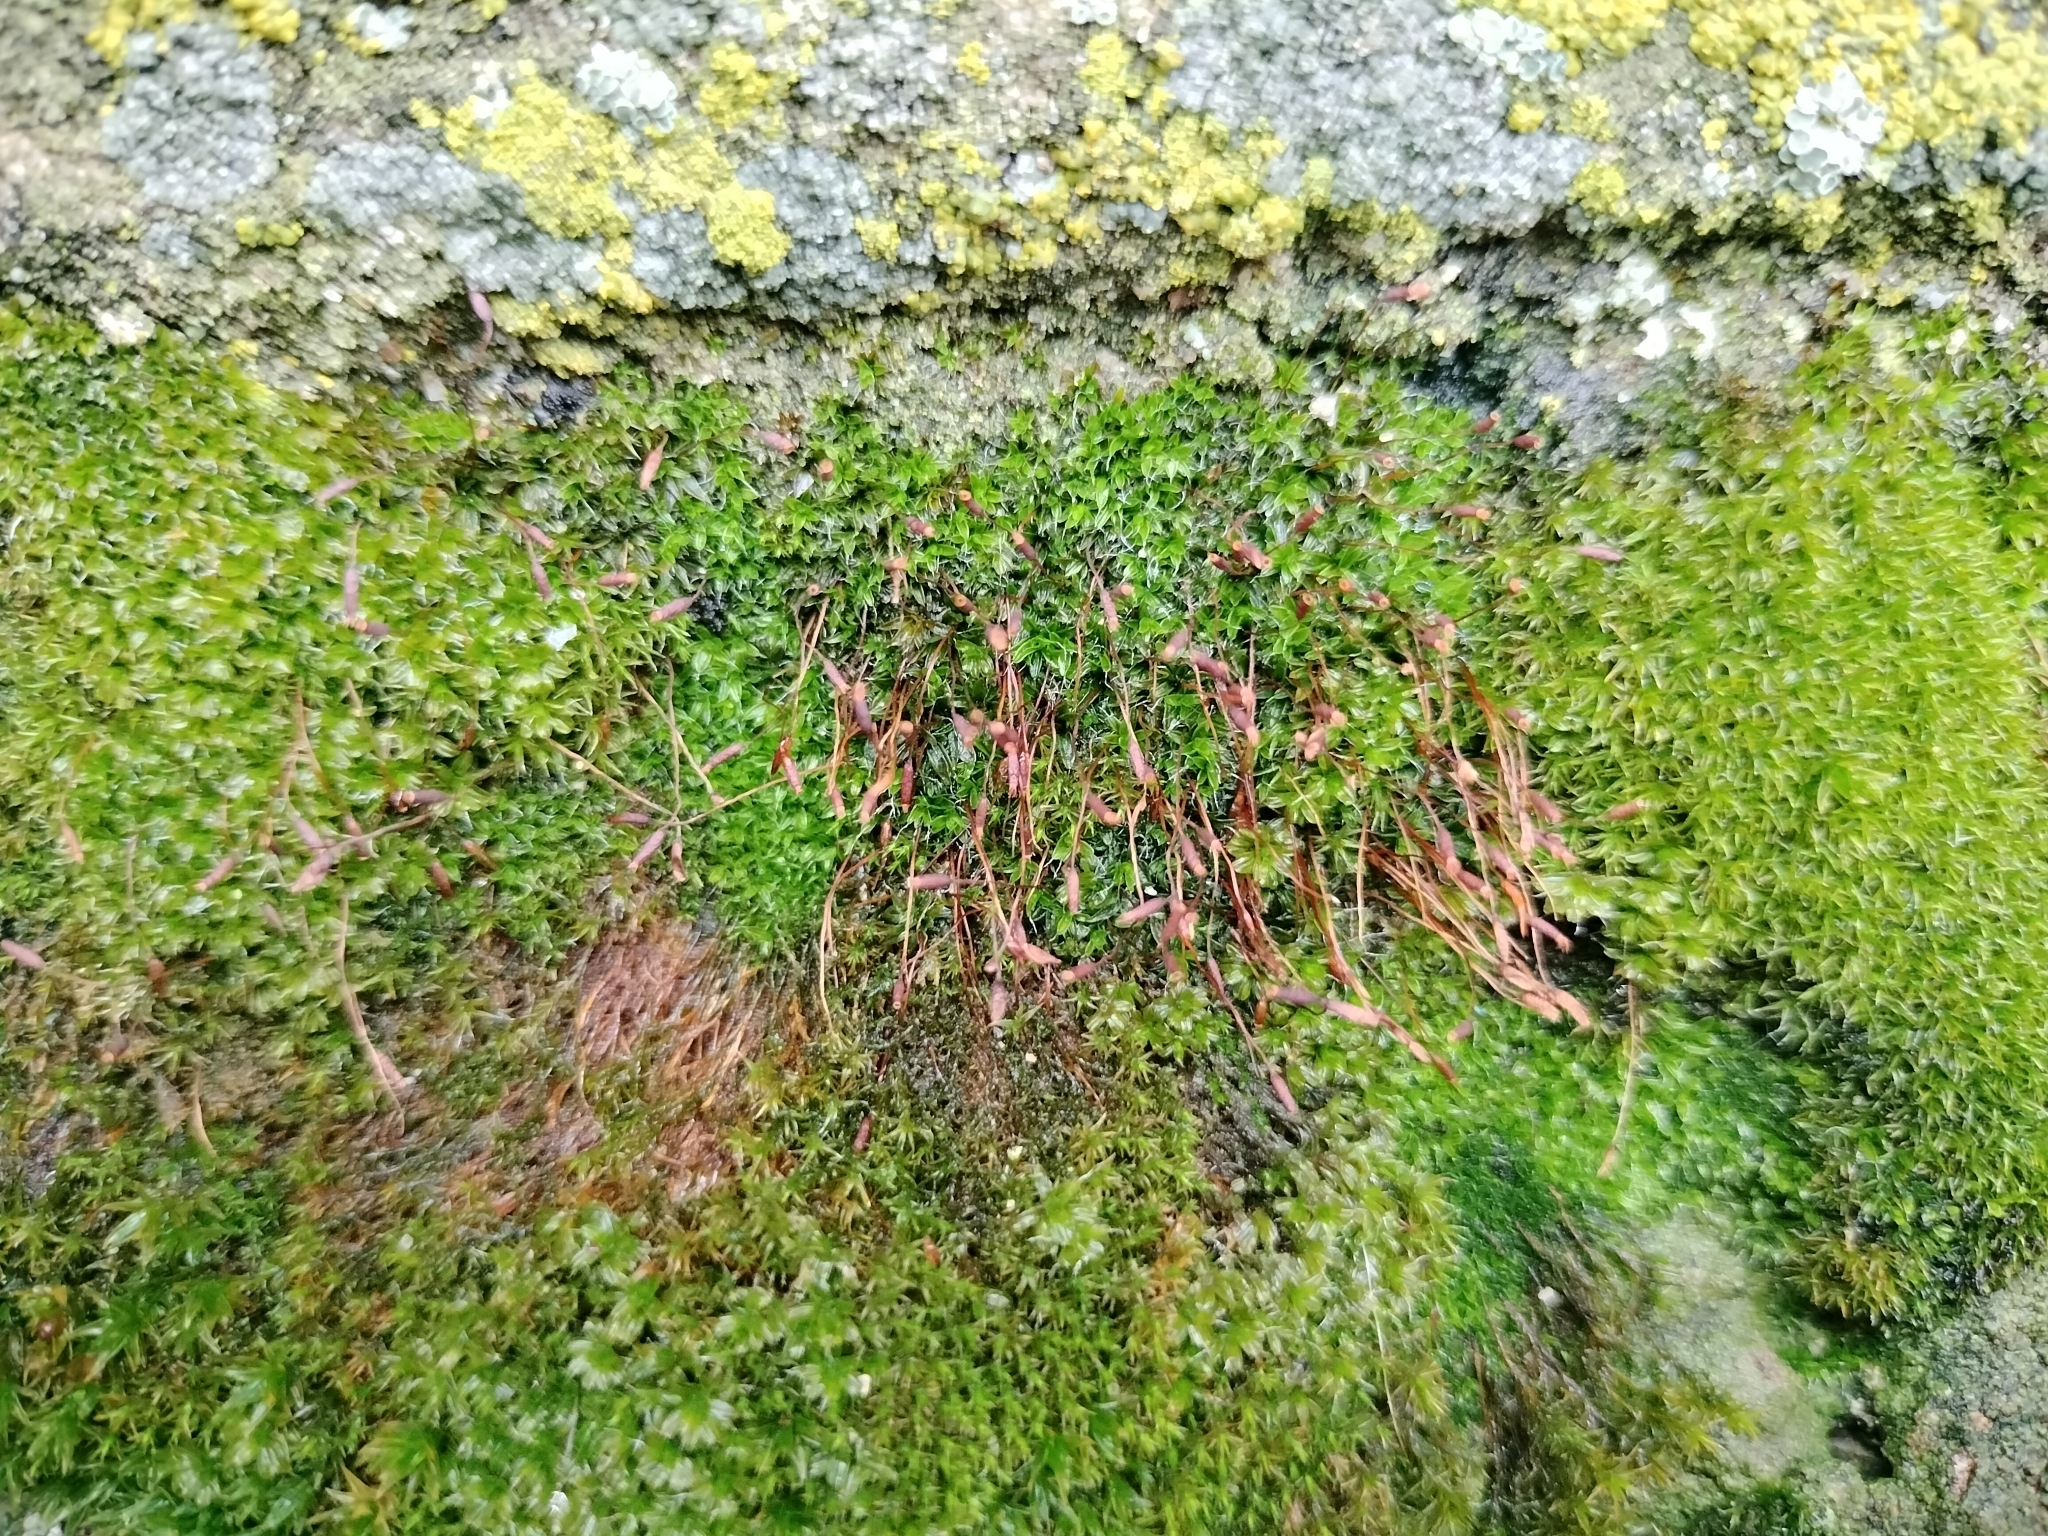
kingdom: Plantae
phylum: Bryophyta
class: Bryopsida
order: Pottiales
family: Pottiaceae
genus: Tortula
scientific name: Tortula muralis
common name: Wall screw-moss
